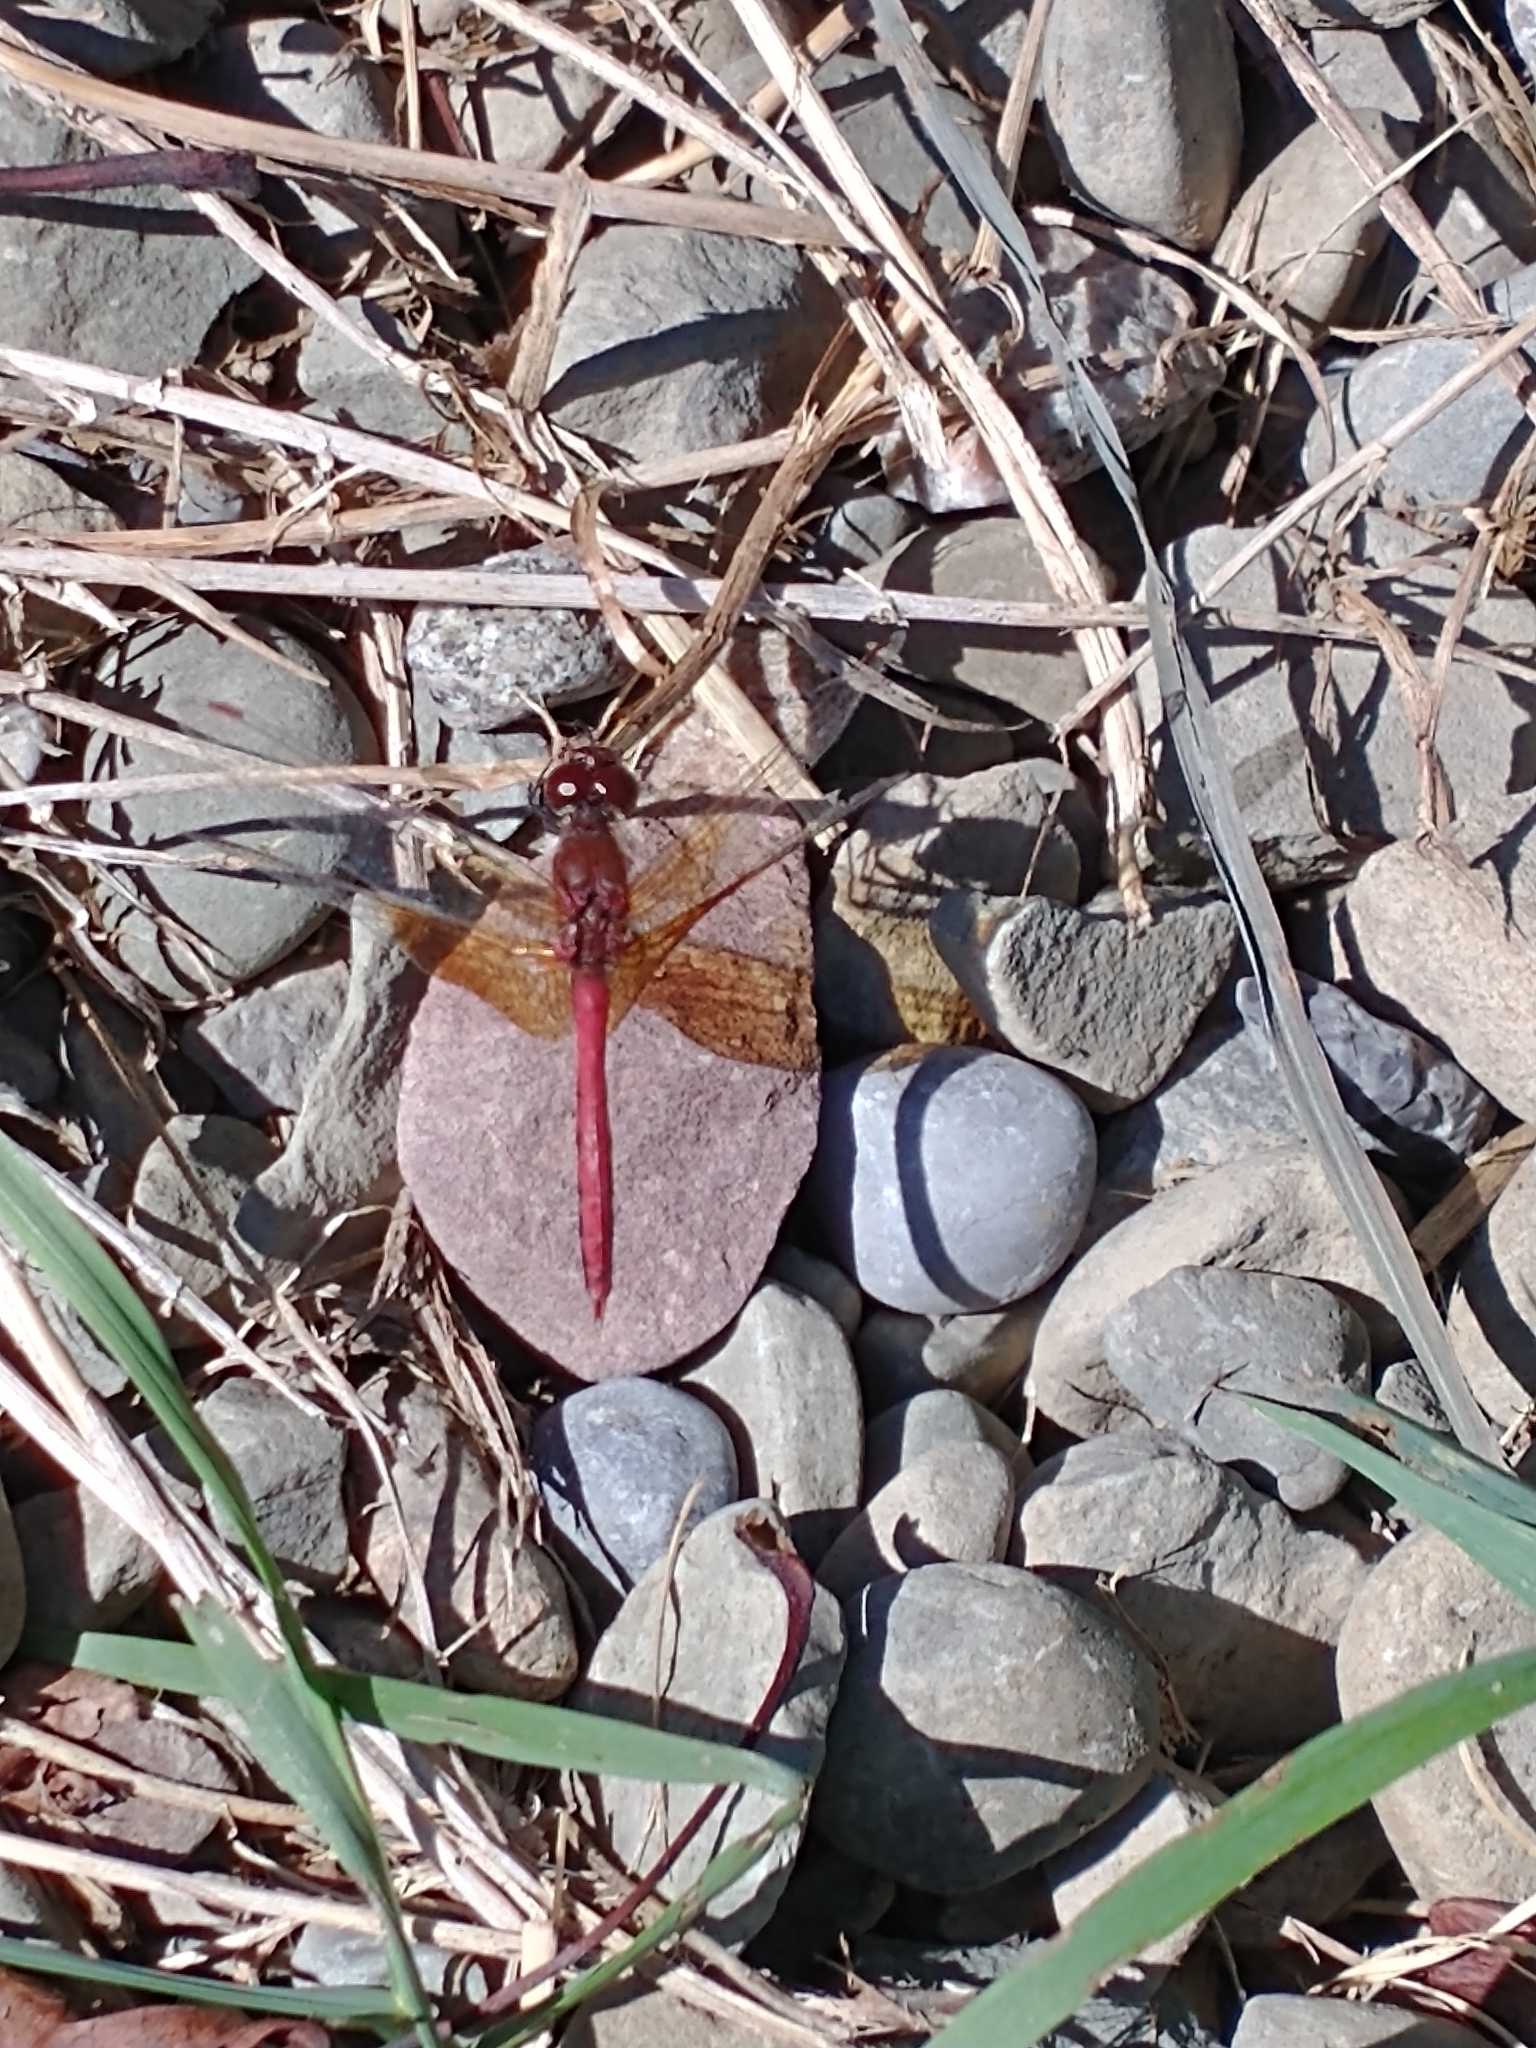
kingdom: Animalia
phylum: Arthropoda
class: Insecta
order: Odonata
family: Libellulidae
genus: Sympetrum
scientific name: Sympetrum semicinctum
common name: Band-winged meadowhawk
